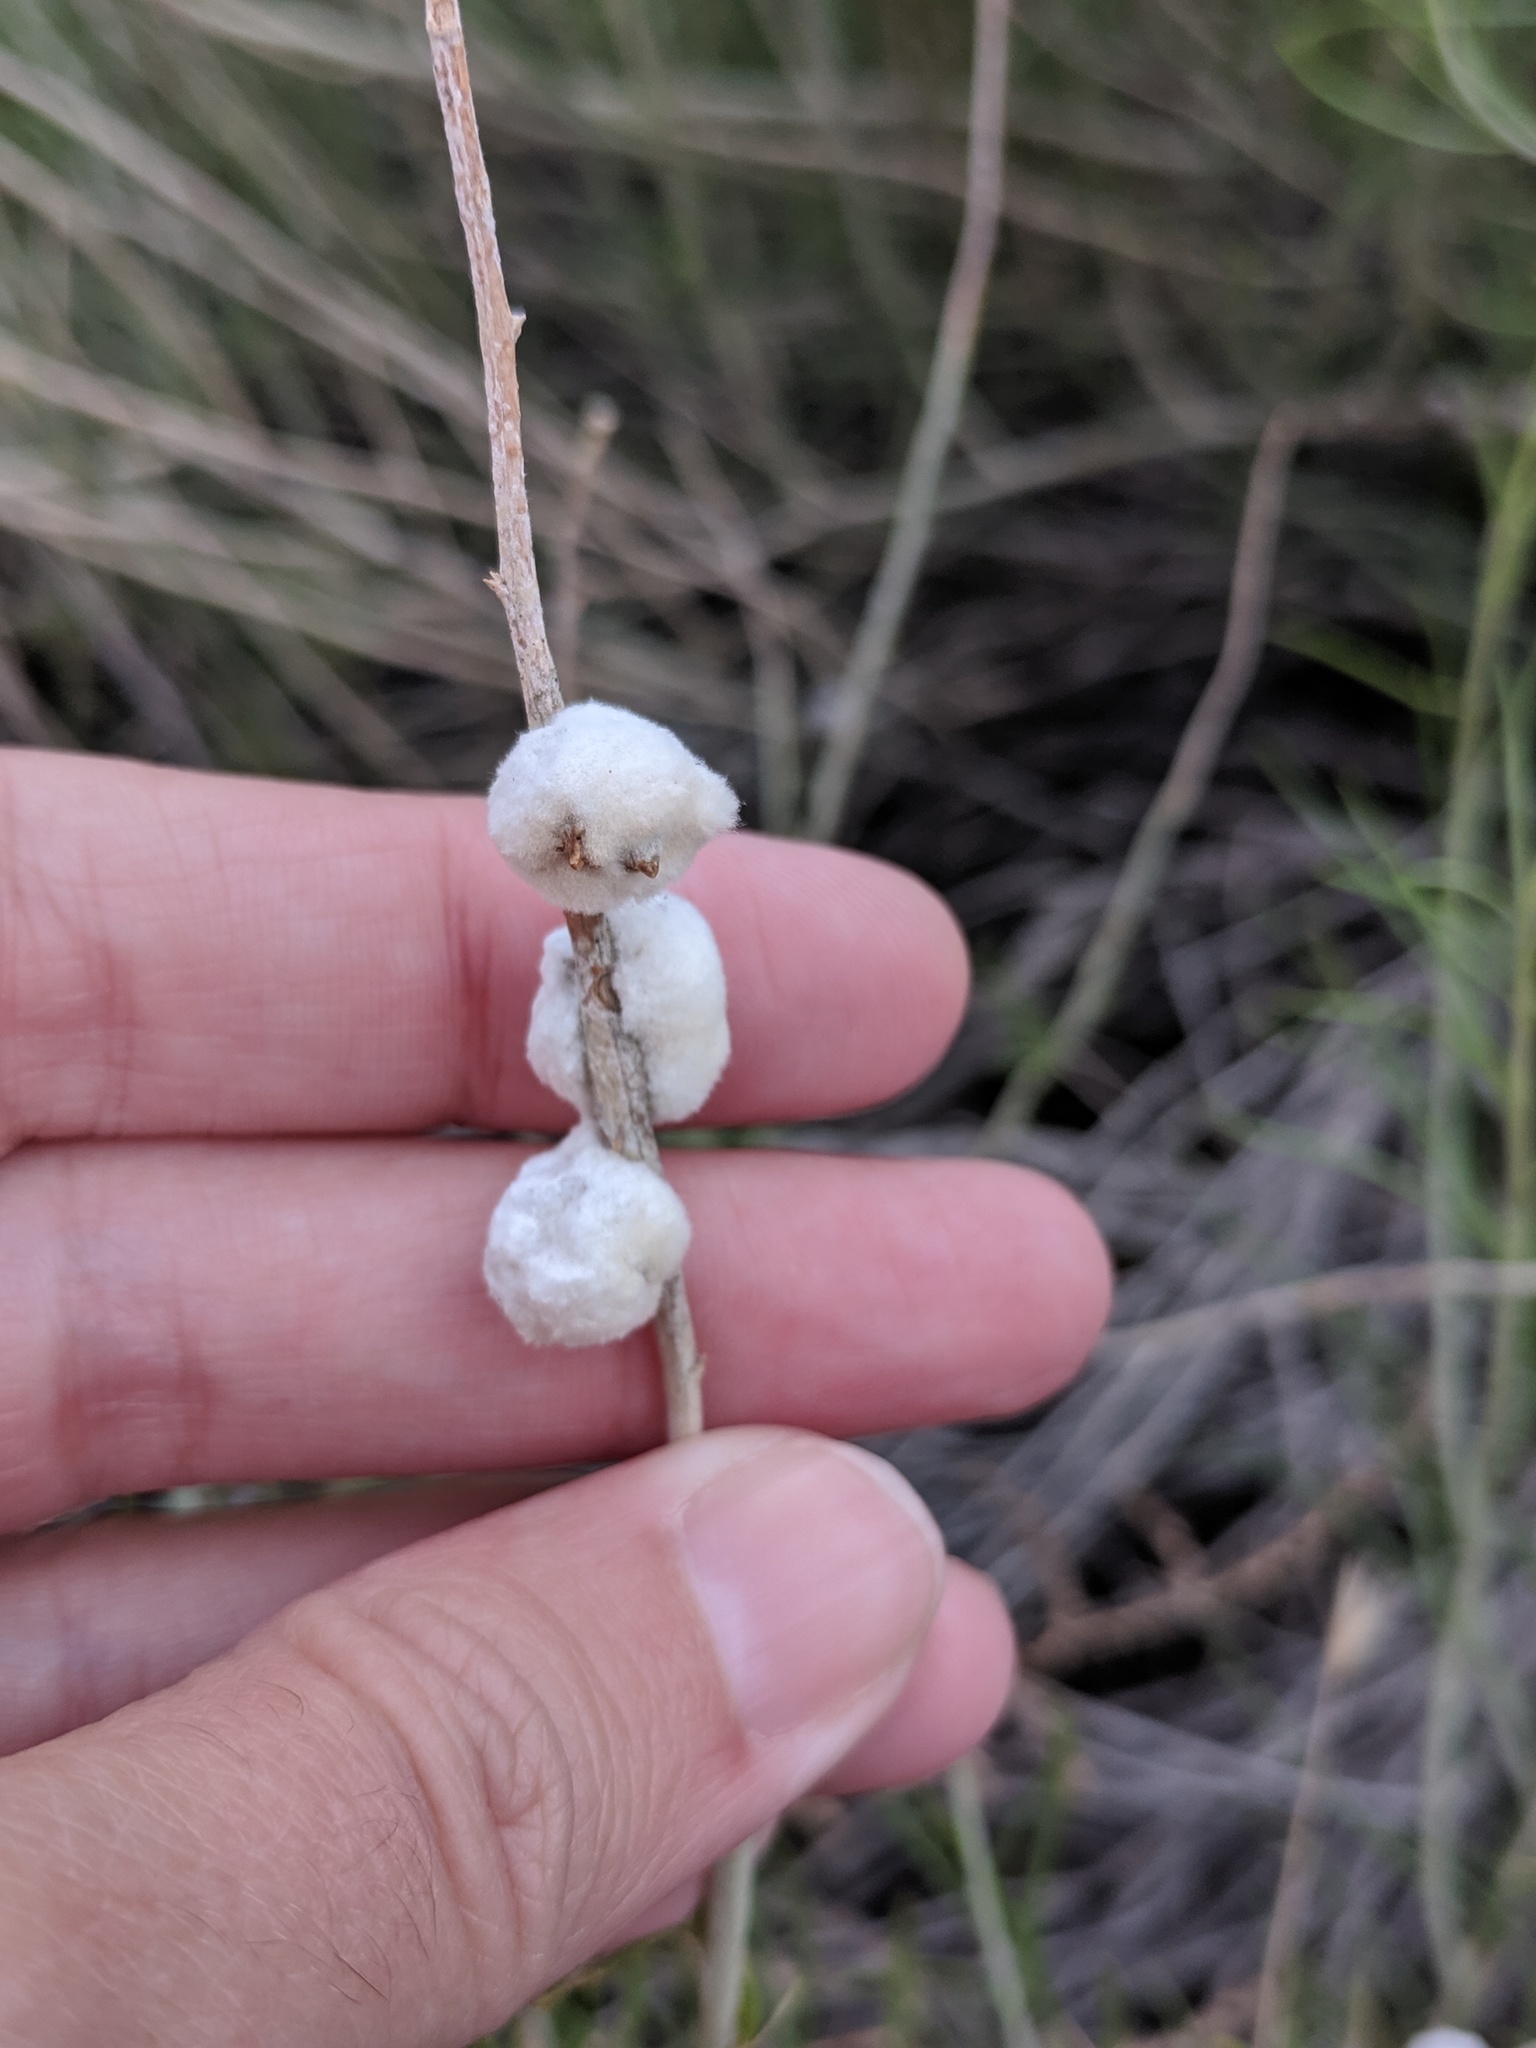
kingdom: Animalia
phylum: Arthropoda
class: Insecta
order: Diptera
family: Tephritidae
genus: Aciurina
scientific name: Aciurina bigeloviae
